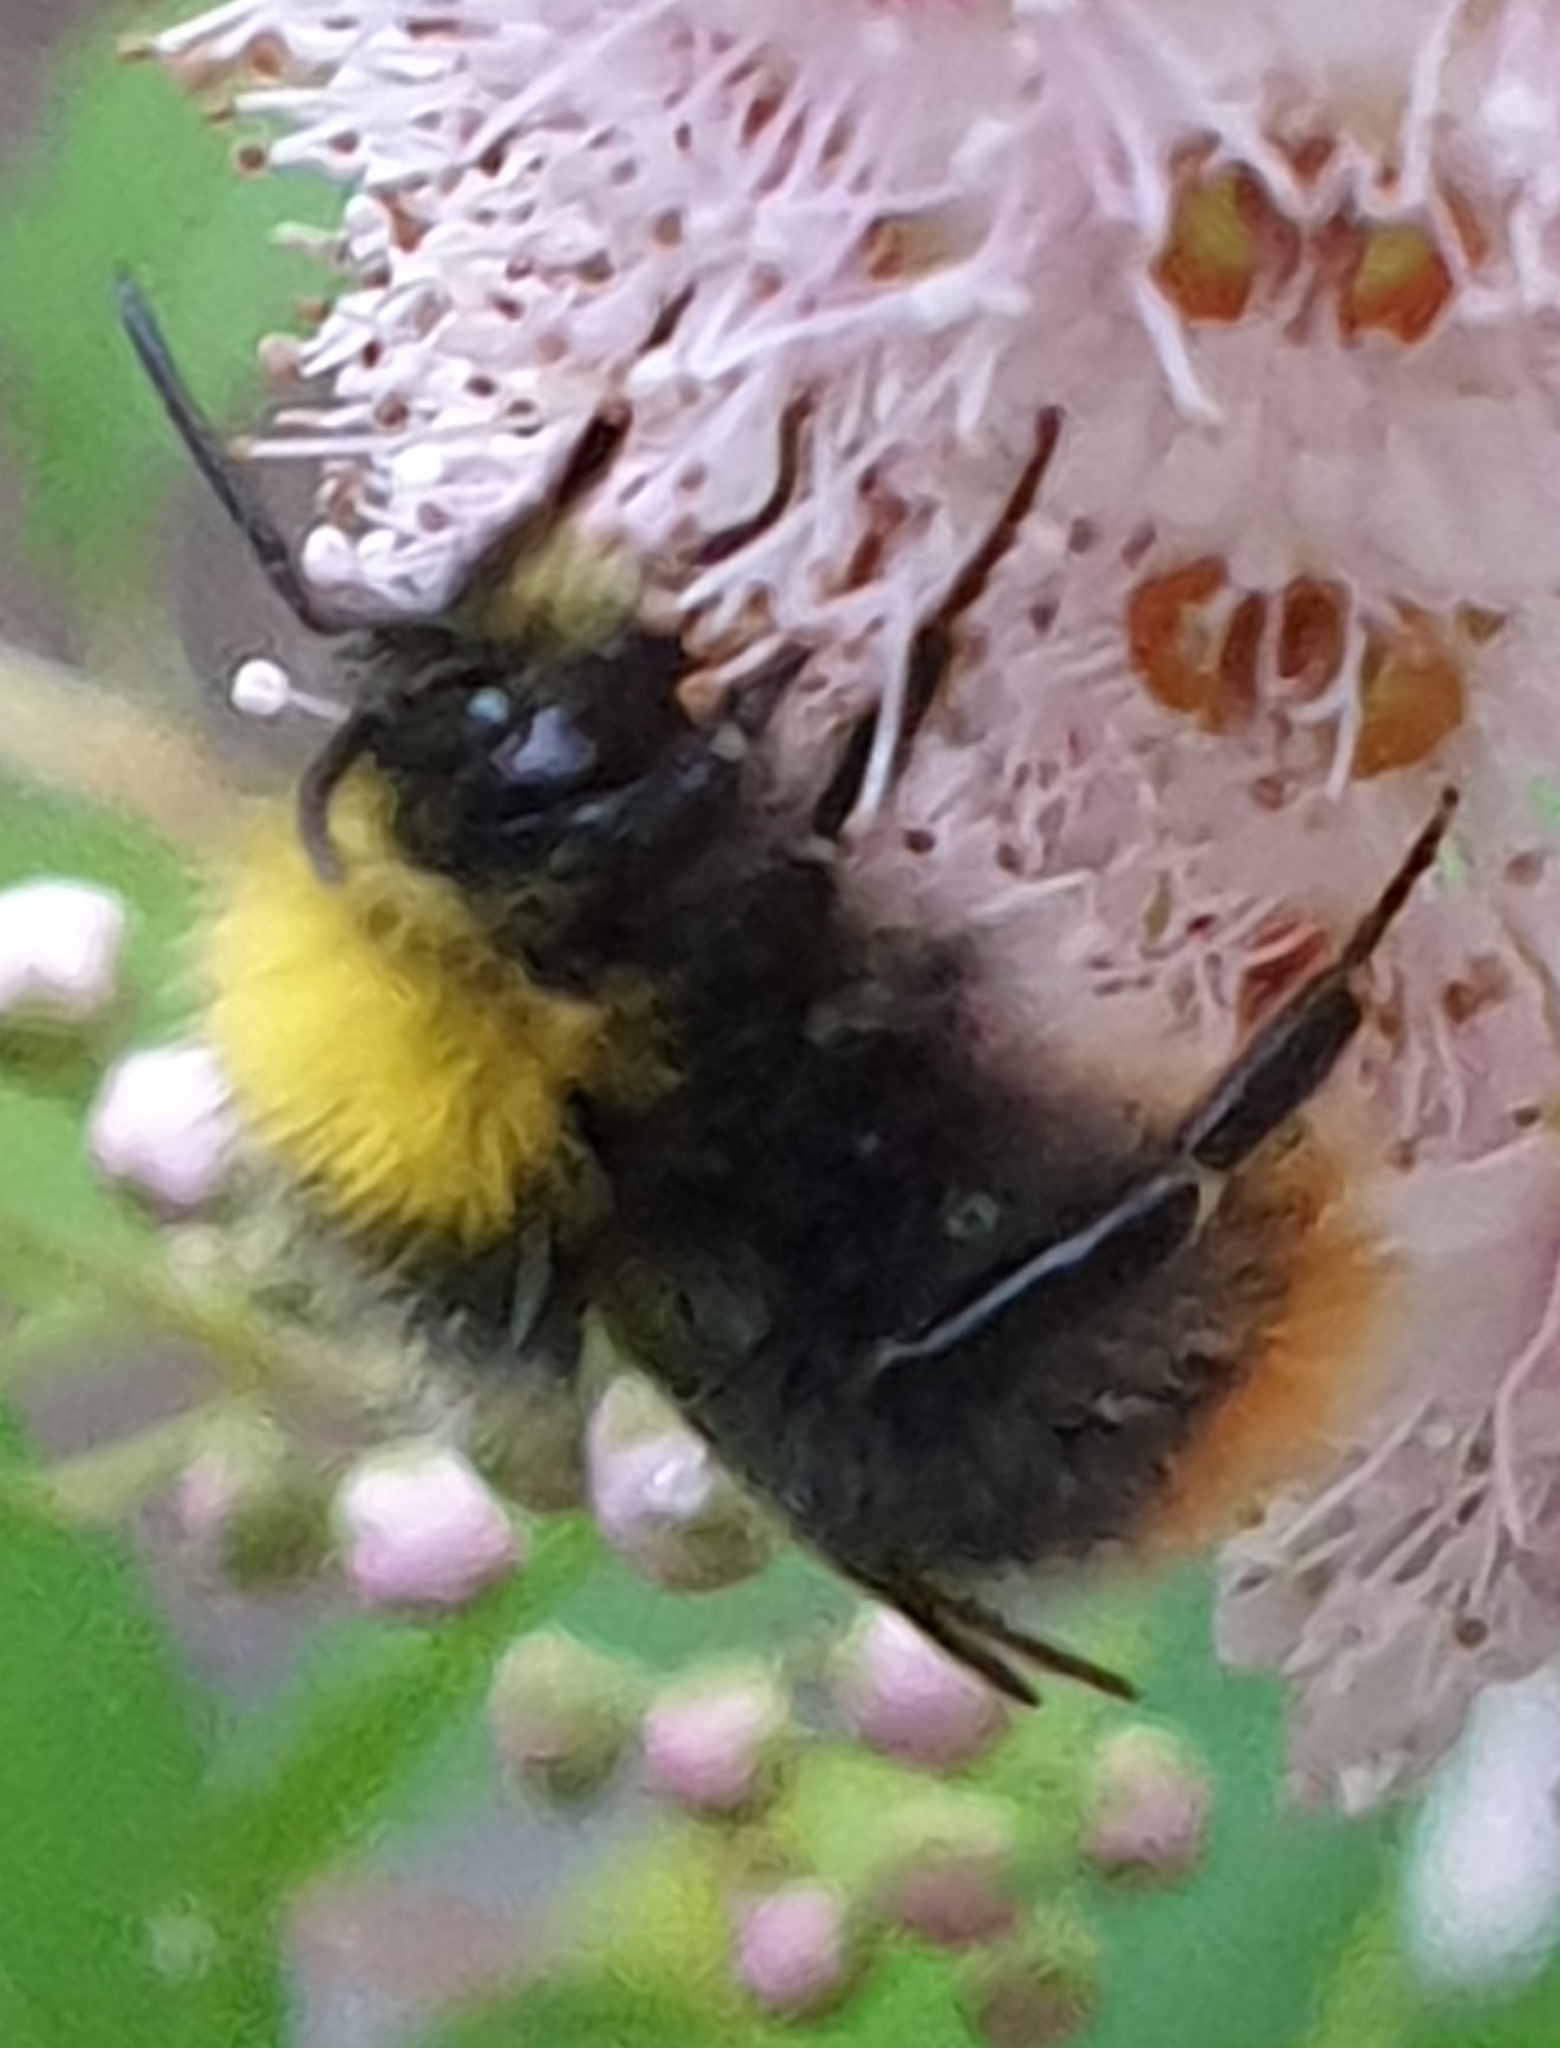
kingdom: Animalia
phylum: Arthropoda
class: Insecta
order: Hymenoptera
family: Apidae
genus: Bombus
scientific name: Bombus pratorum
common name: Early humble-bee
